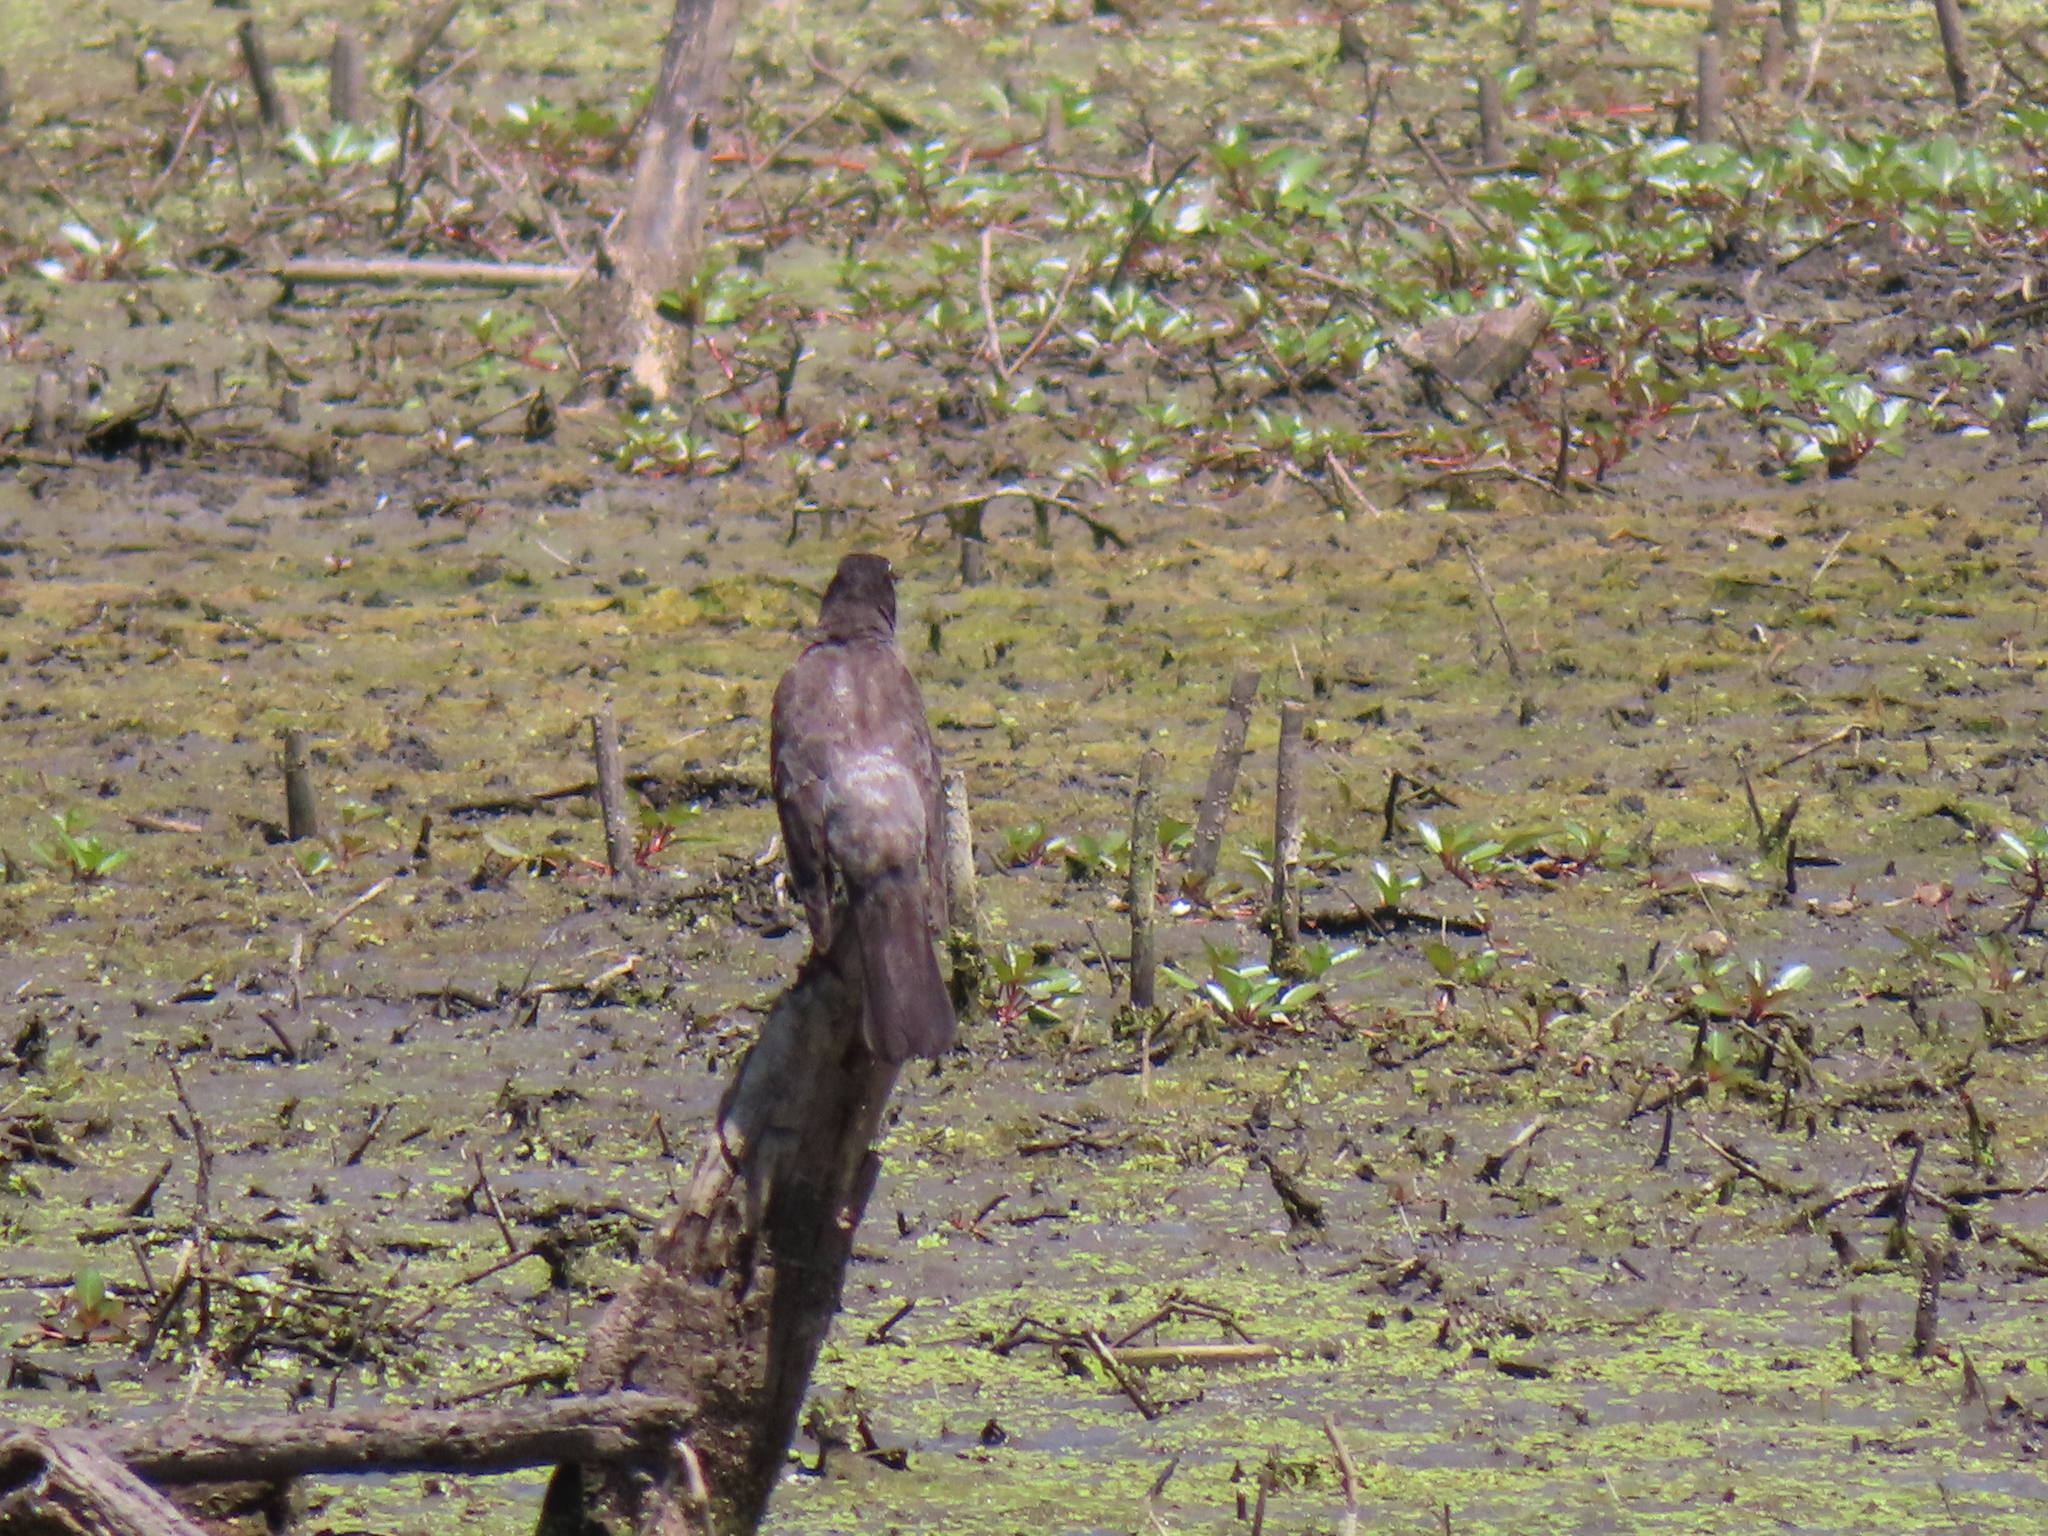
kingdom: Animalia
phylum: Chordata
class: Aves
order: Passeriformes
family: Turdidae
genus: Turdus
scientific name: Turdus migratorius
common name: American robin
